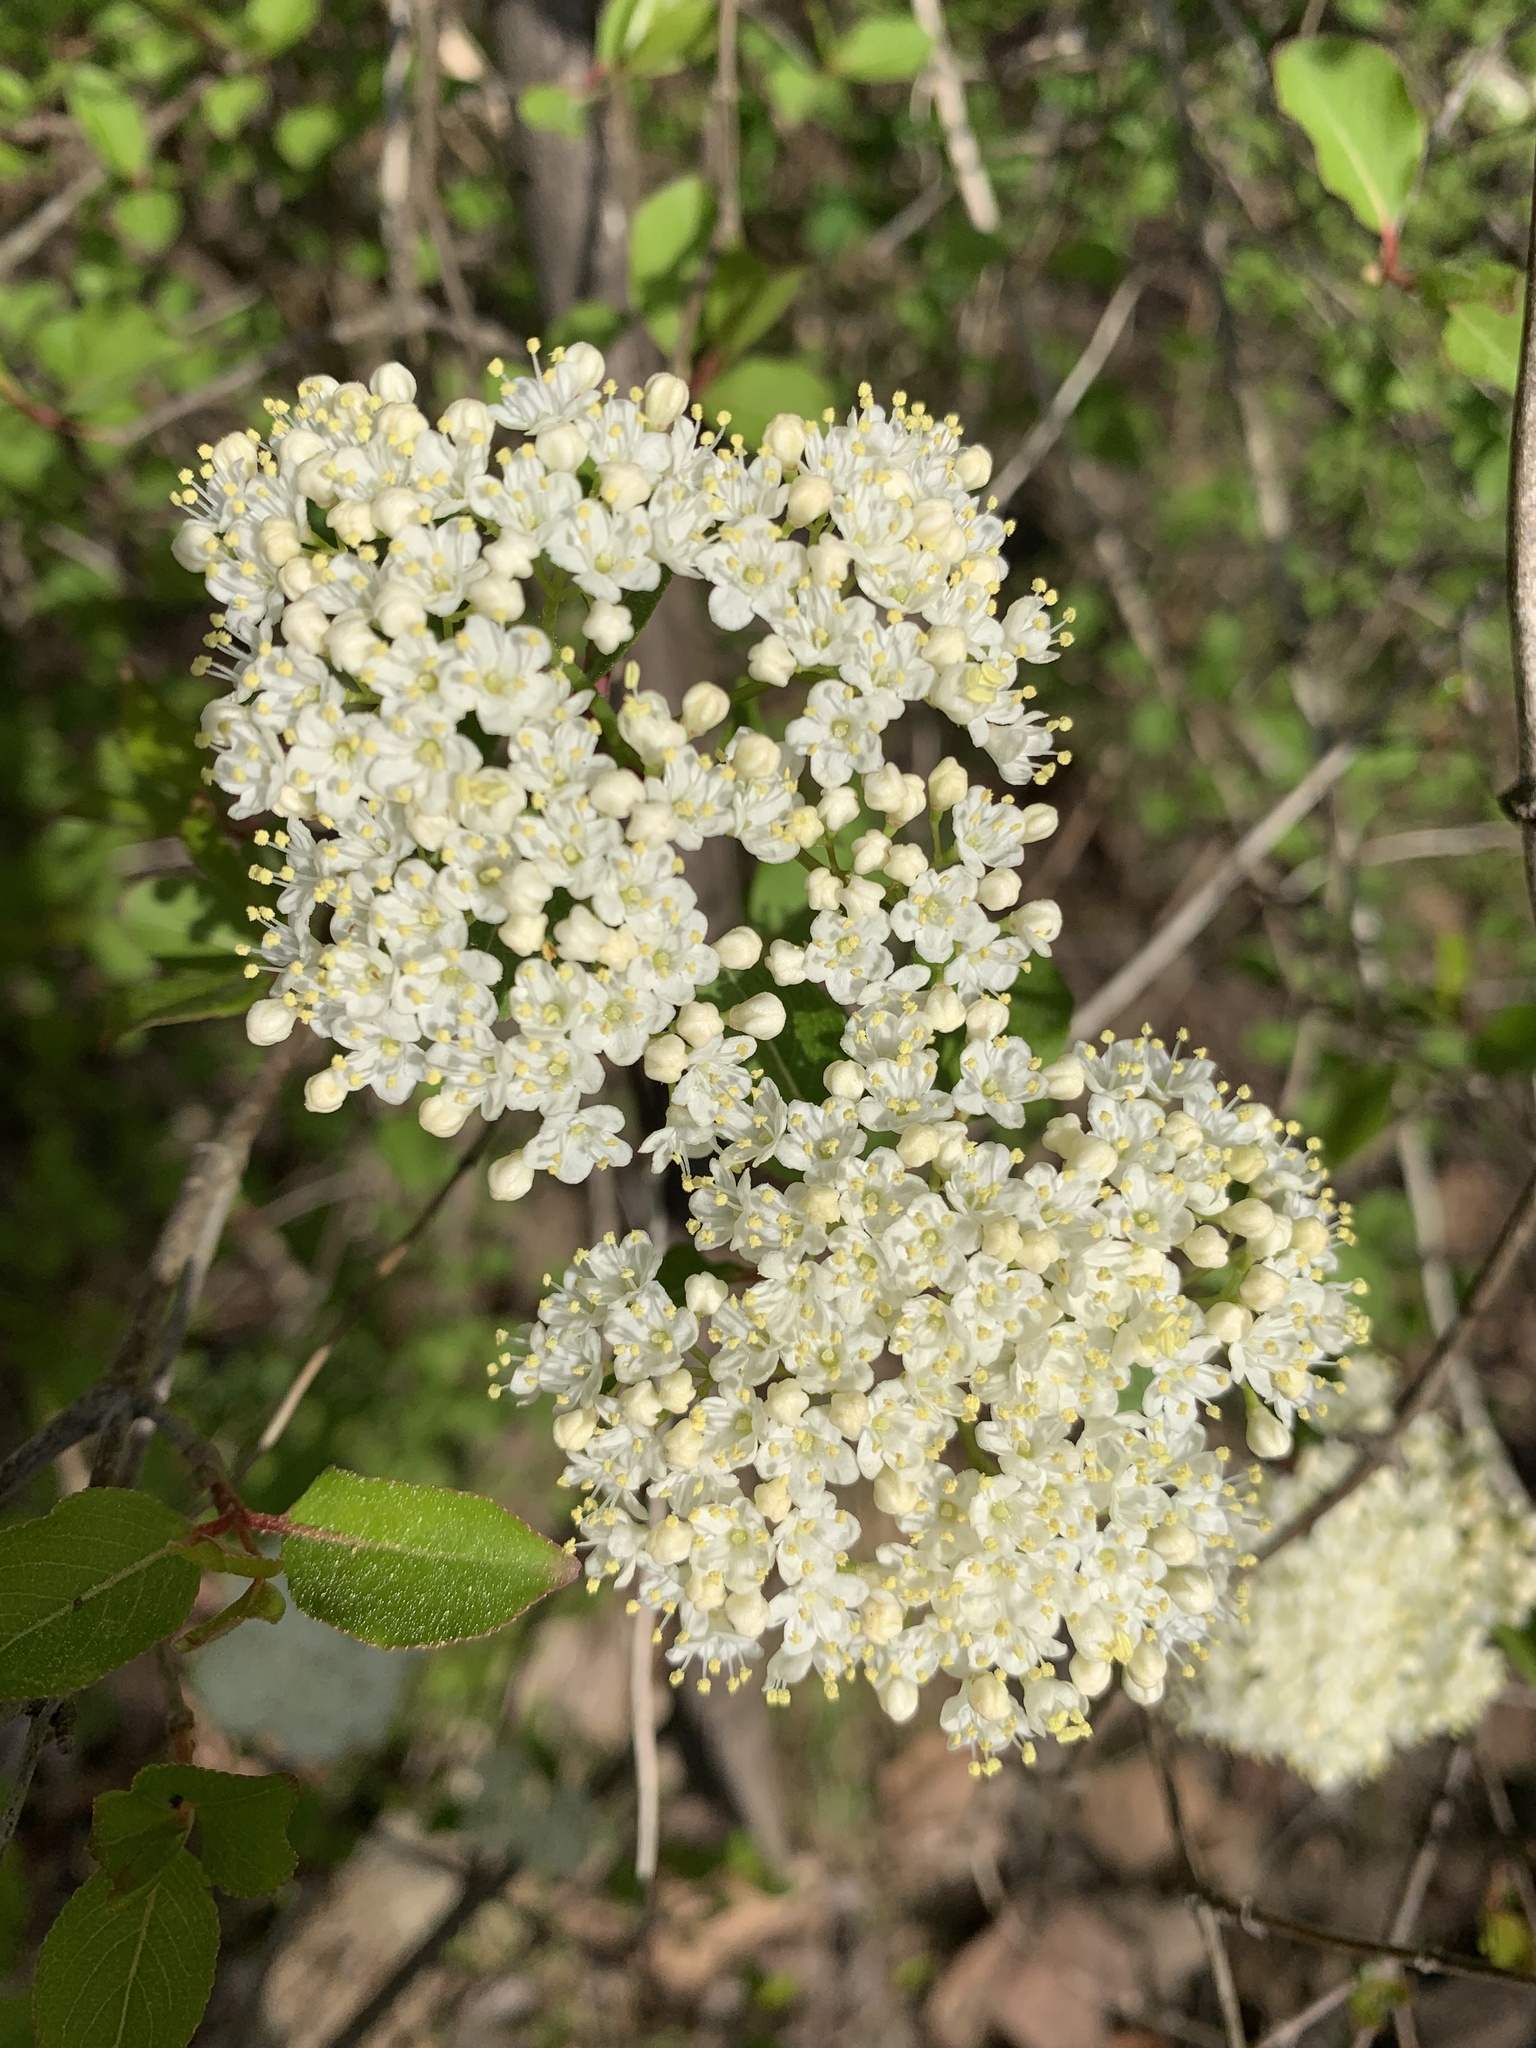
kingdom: Plantae
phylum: Tracheophyta
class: Magnoliopsida
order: Dipsacales
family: Viburnaceae
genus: Viburnum
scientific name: Viburnum prunifolium
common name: Black haw
